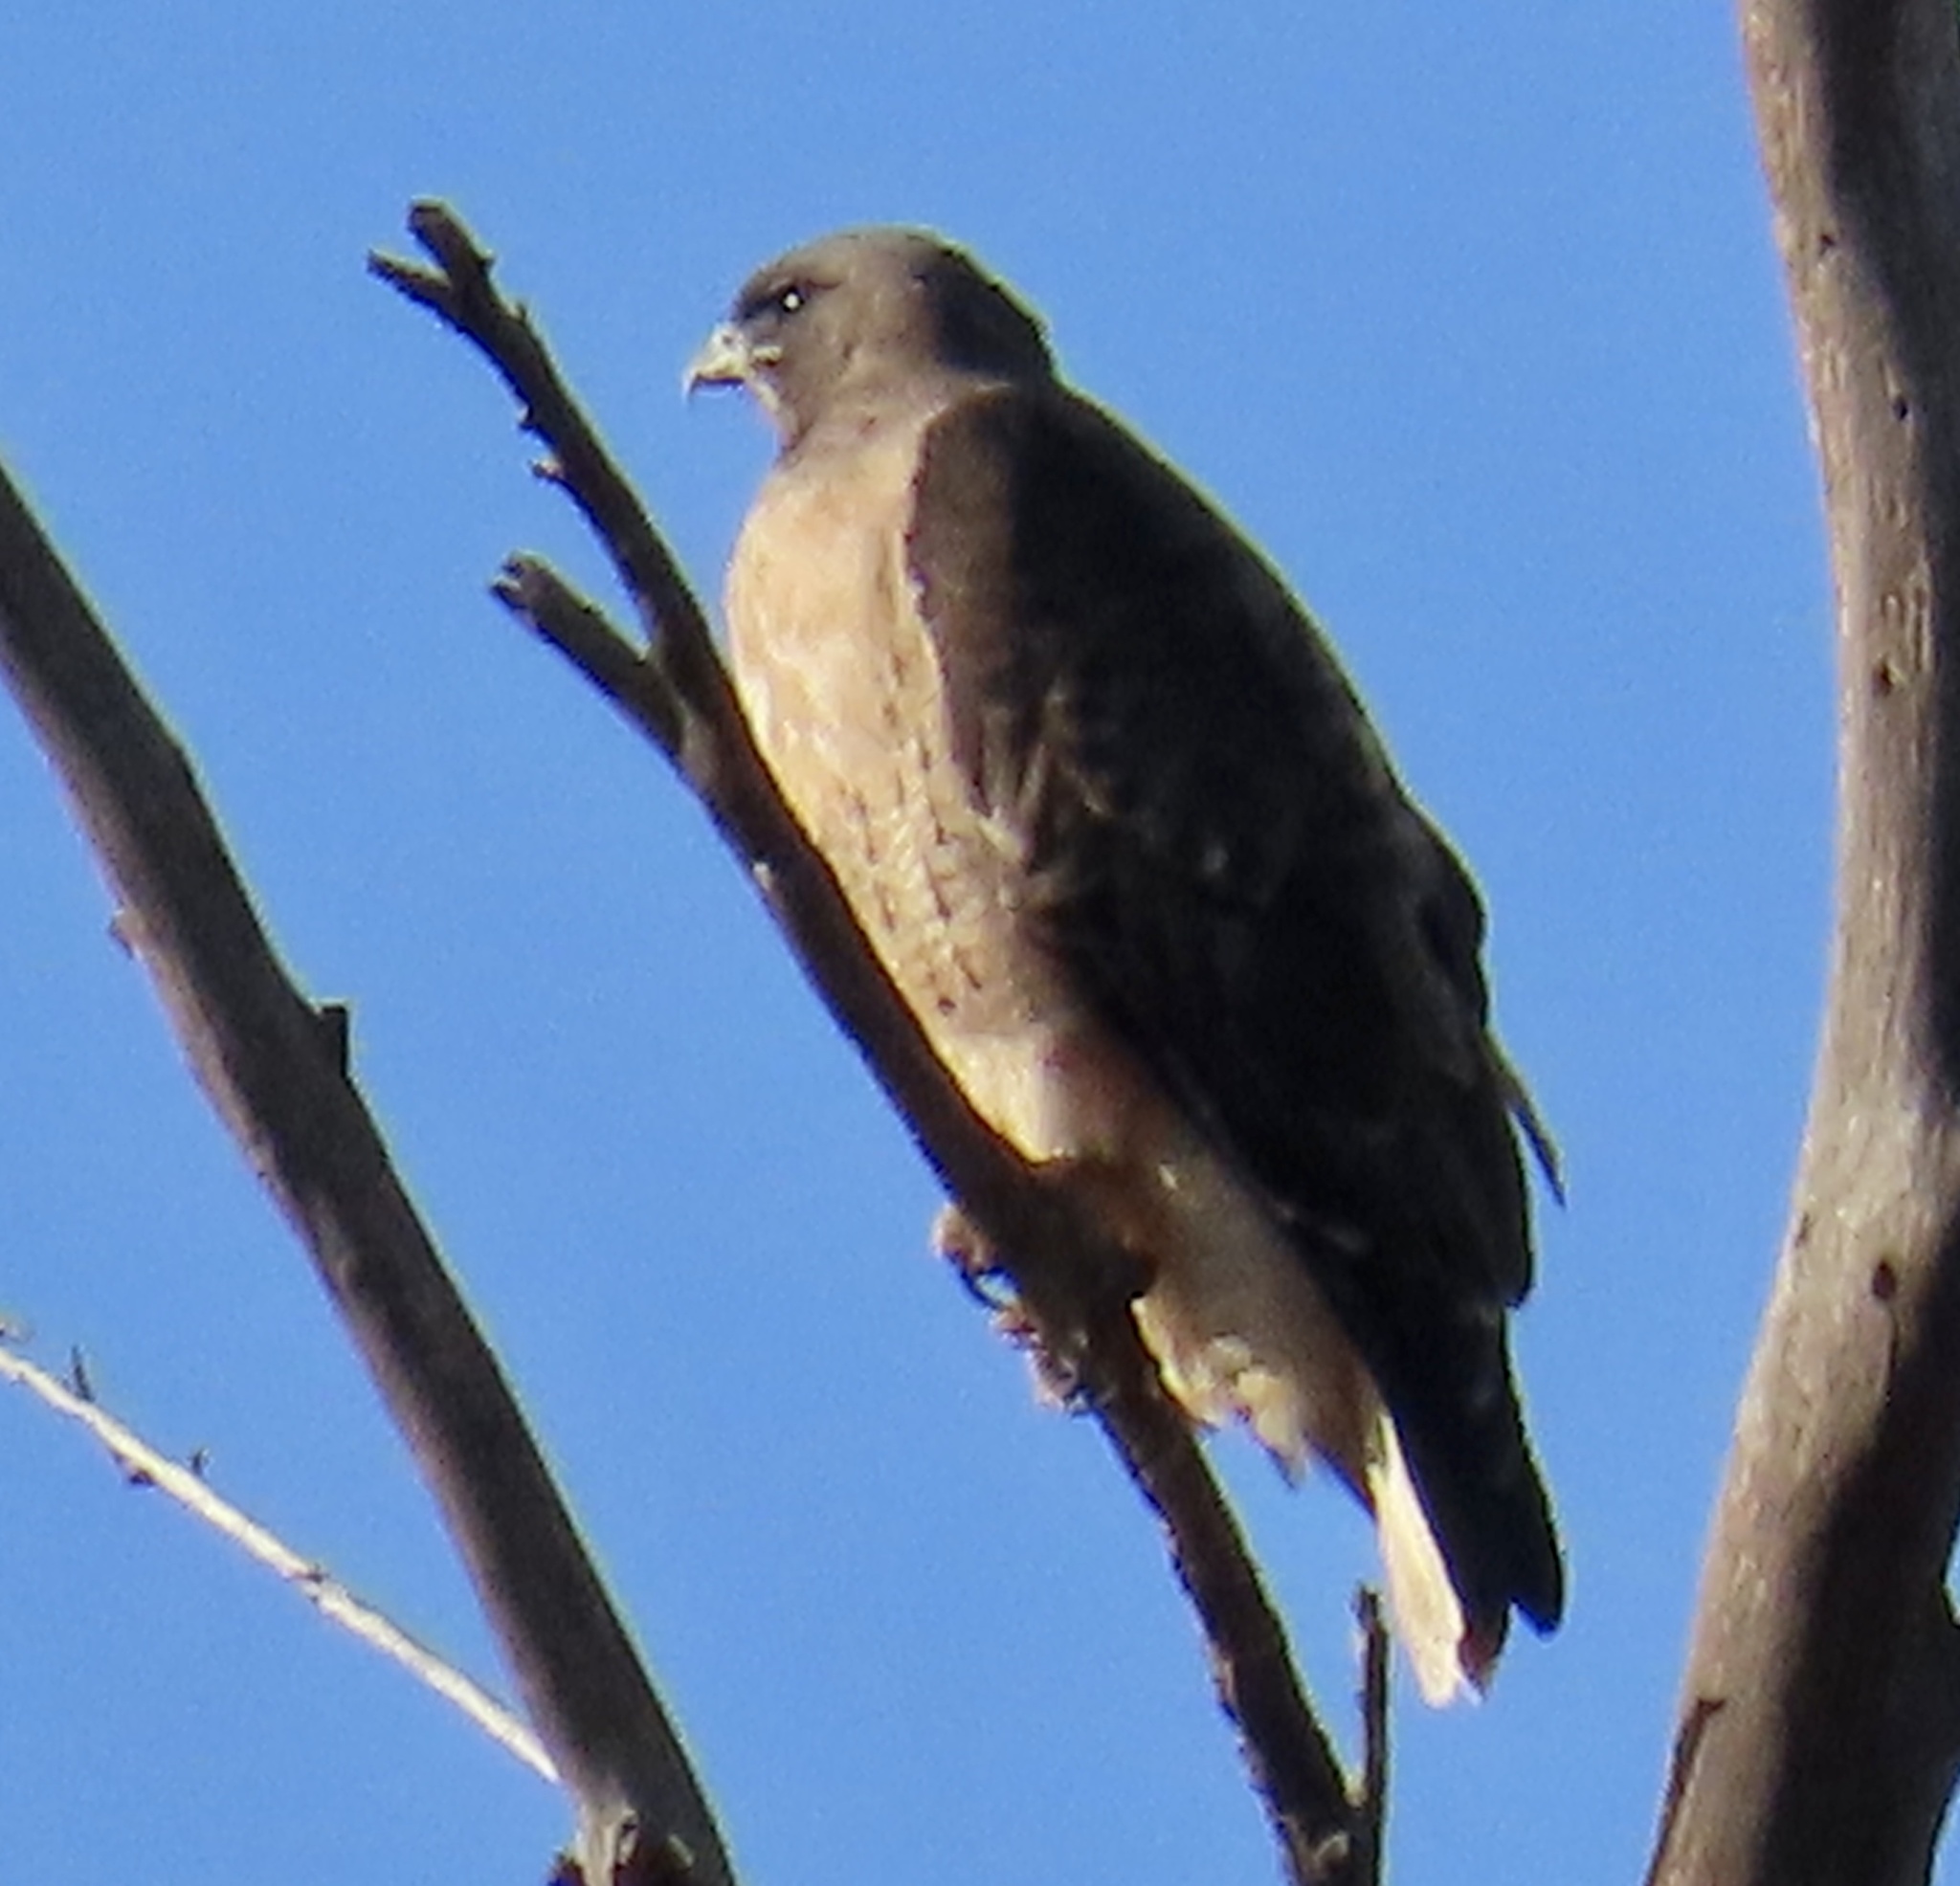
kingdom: Animalia
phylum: Chordata
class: Aves
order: Accipitriformes
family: Accipitridae
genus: Buteo
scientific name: Buteo jamaicensis
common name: Red-tailed hawk
